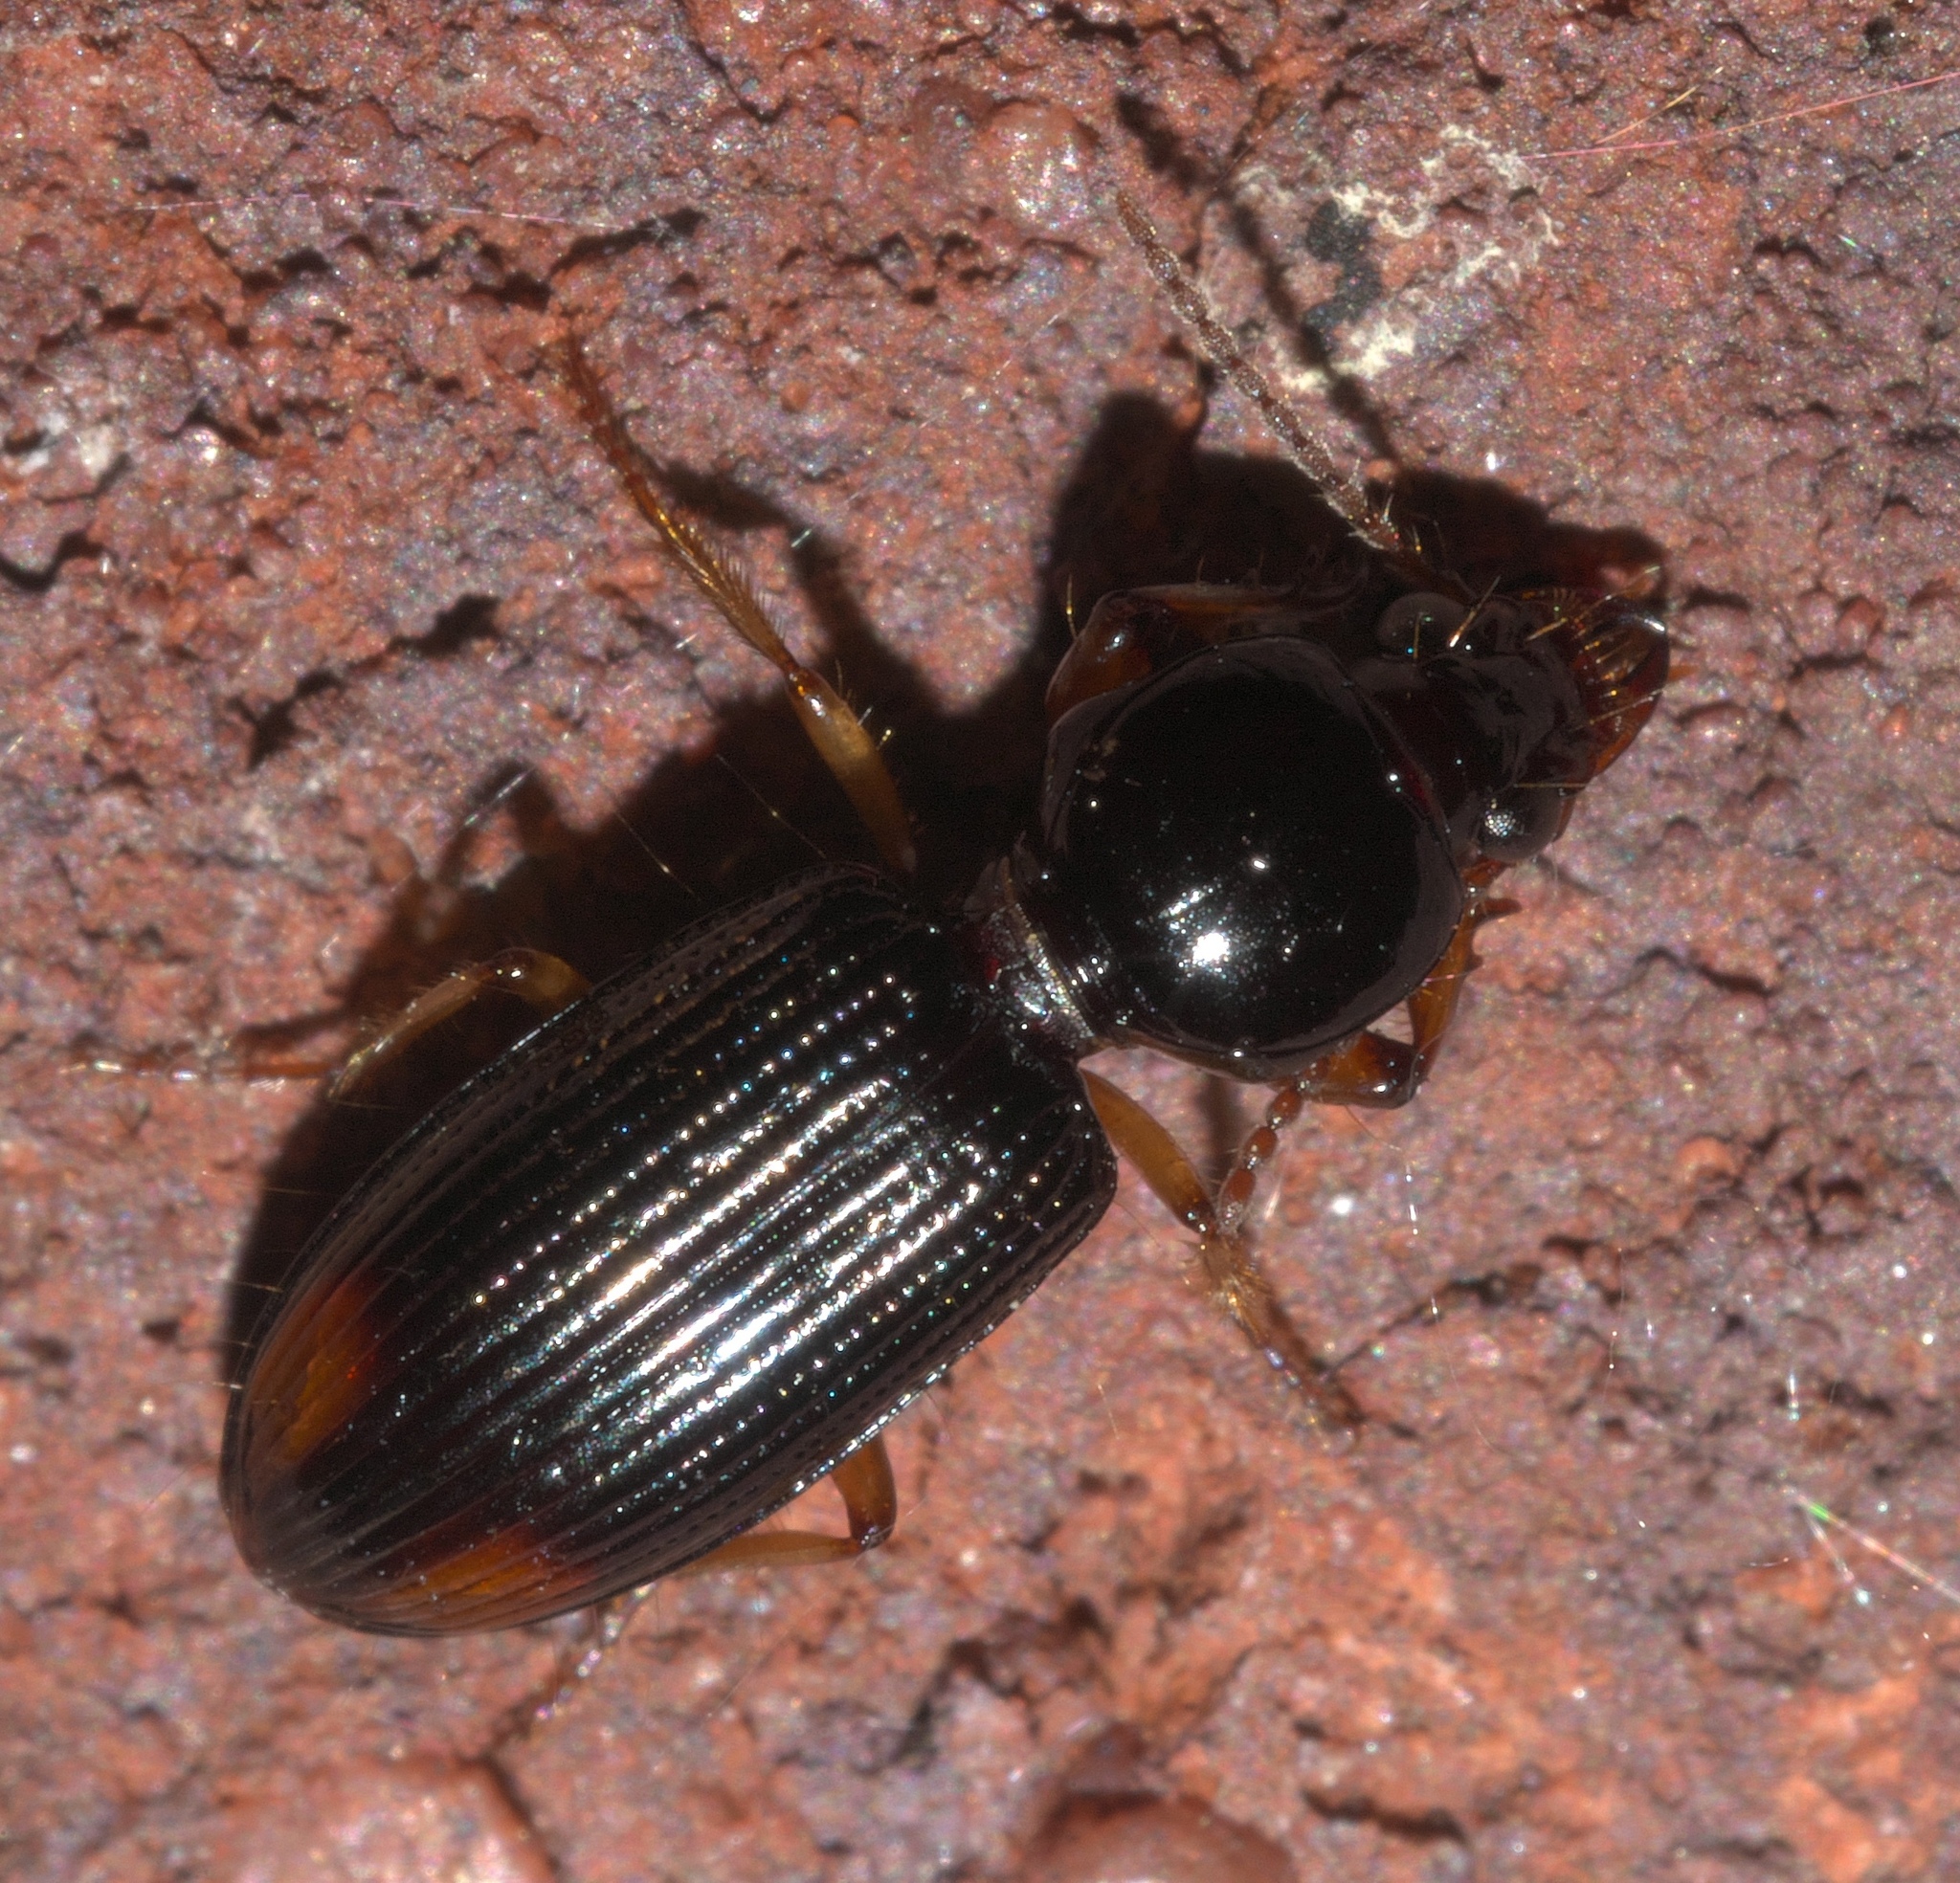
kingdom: Animalia
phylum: Arthropoda
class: Insecta
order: Coleoptera
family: Carabidae
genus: Aspidoglossa
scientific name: Aspidoglossa subangulata
